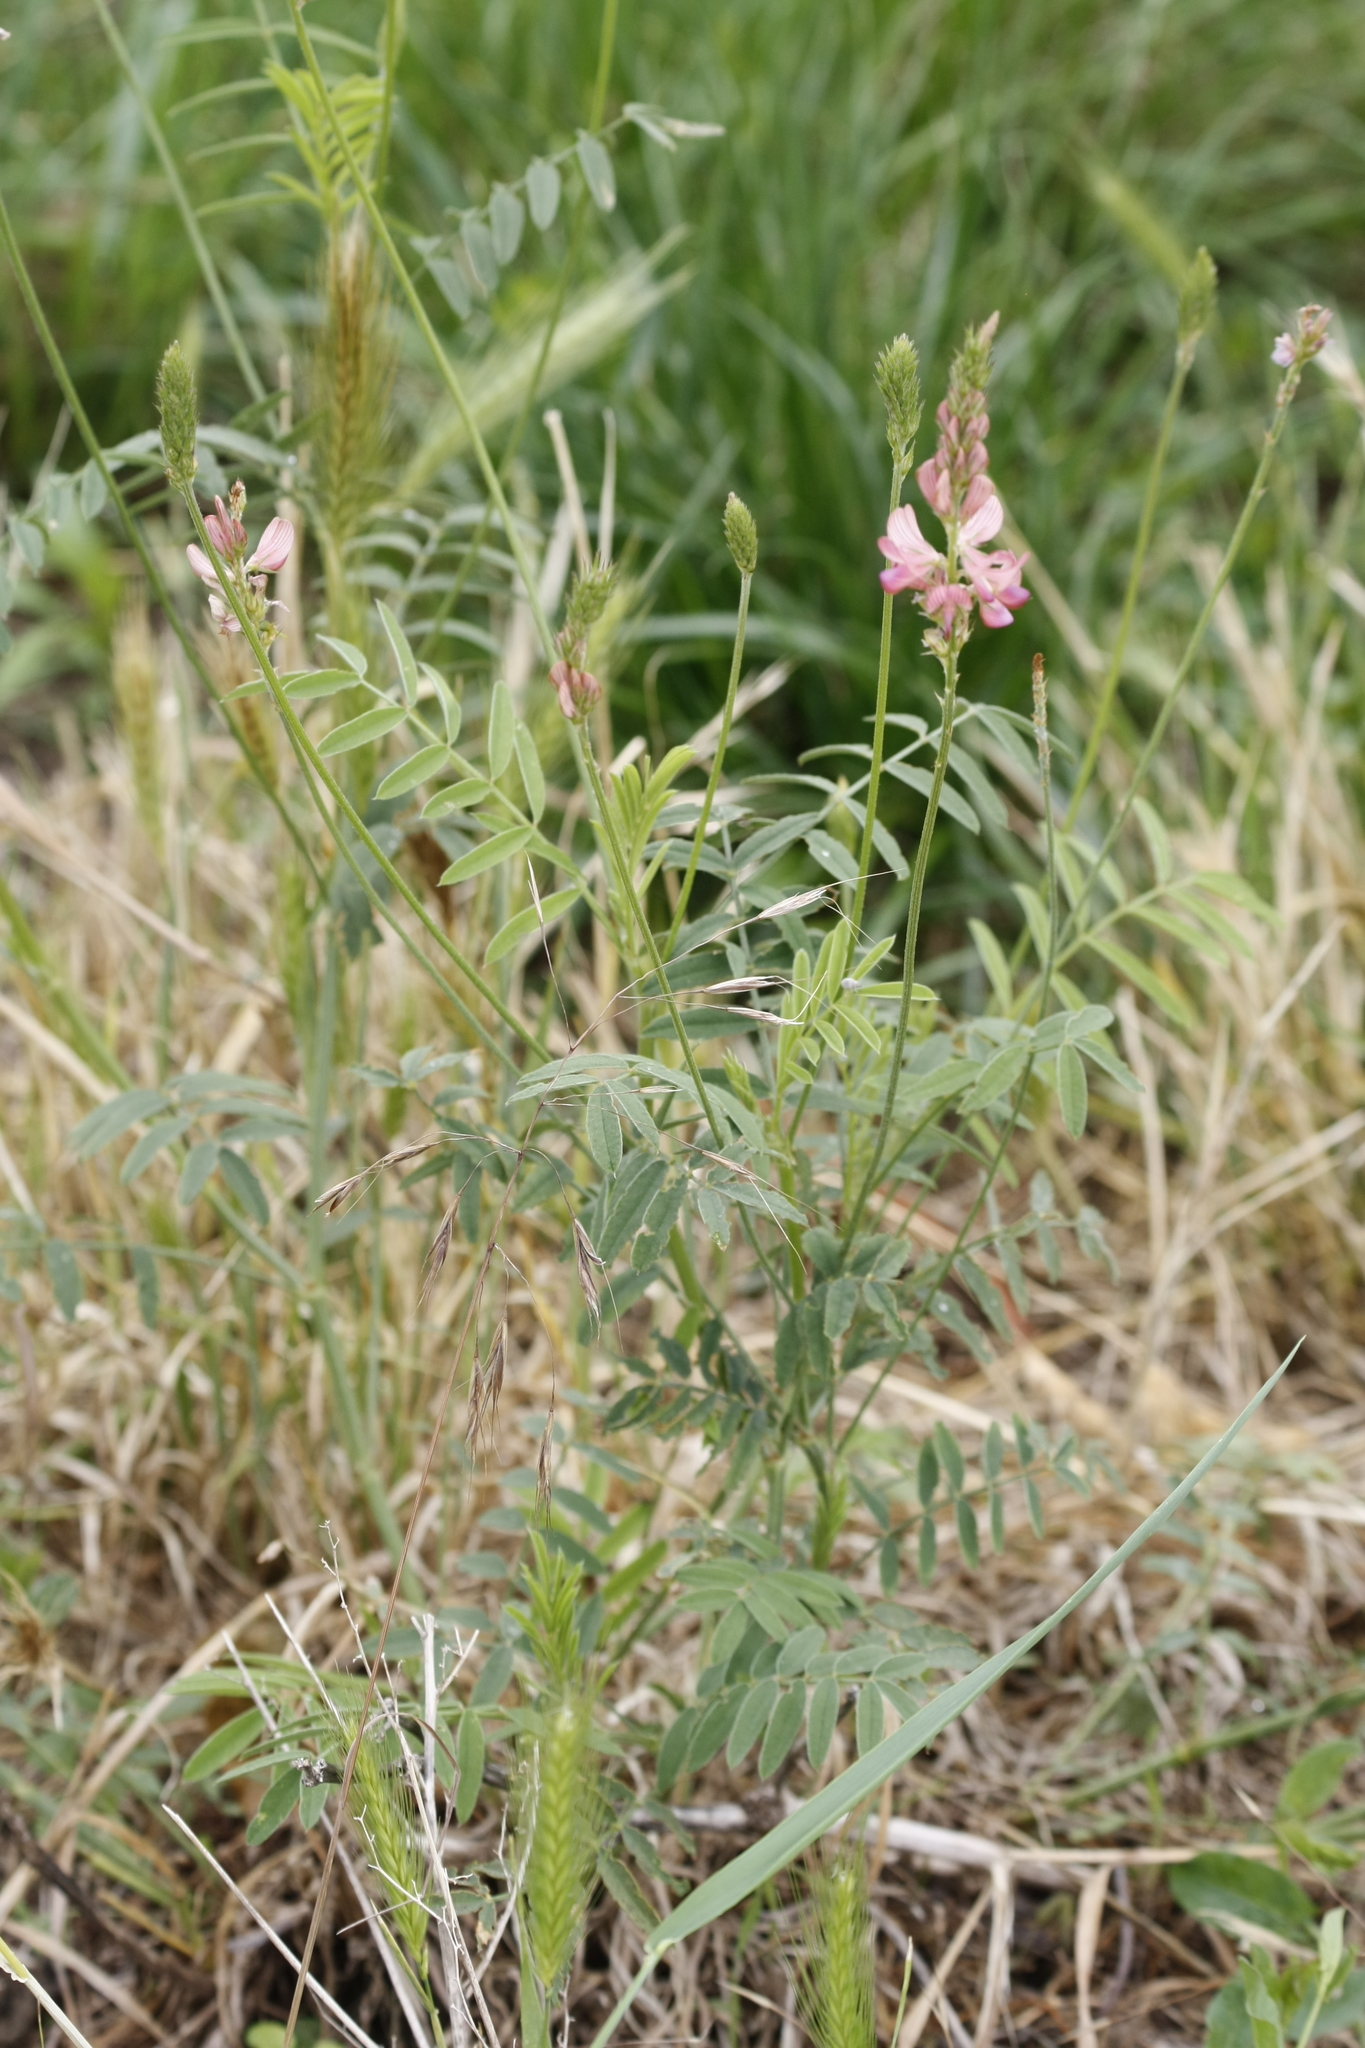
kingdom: Plantae
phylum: Tracheophyta
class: Magnoliopsida
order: Fabales
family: Fabaceae
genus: Onobrychis
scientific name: Onobrychis viciifolia
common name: Sainfoin
